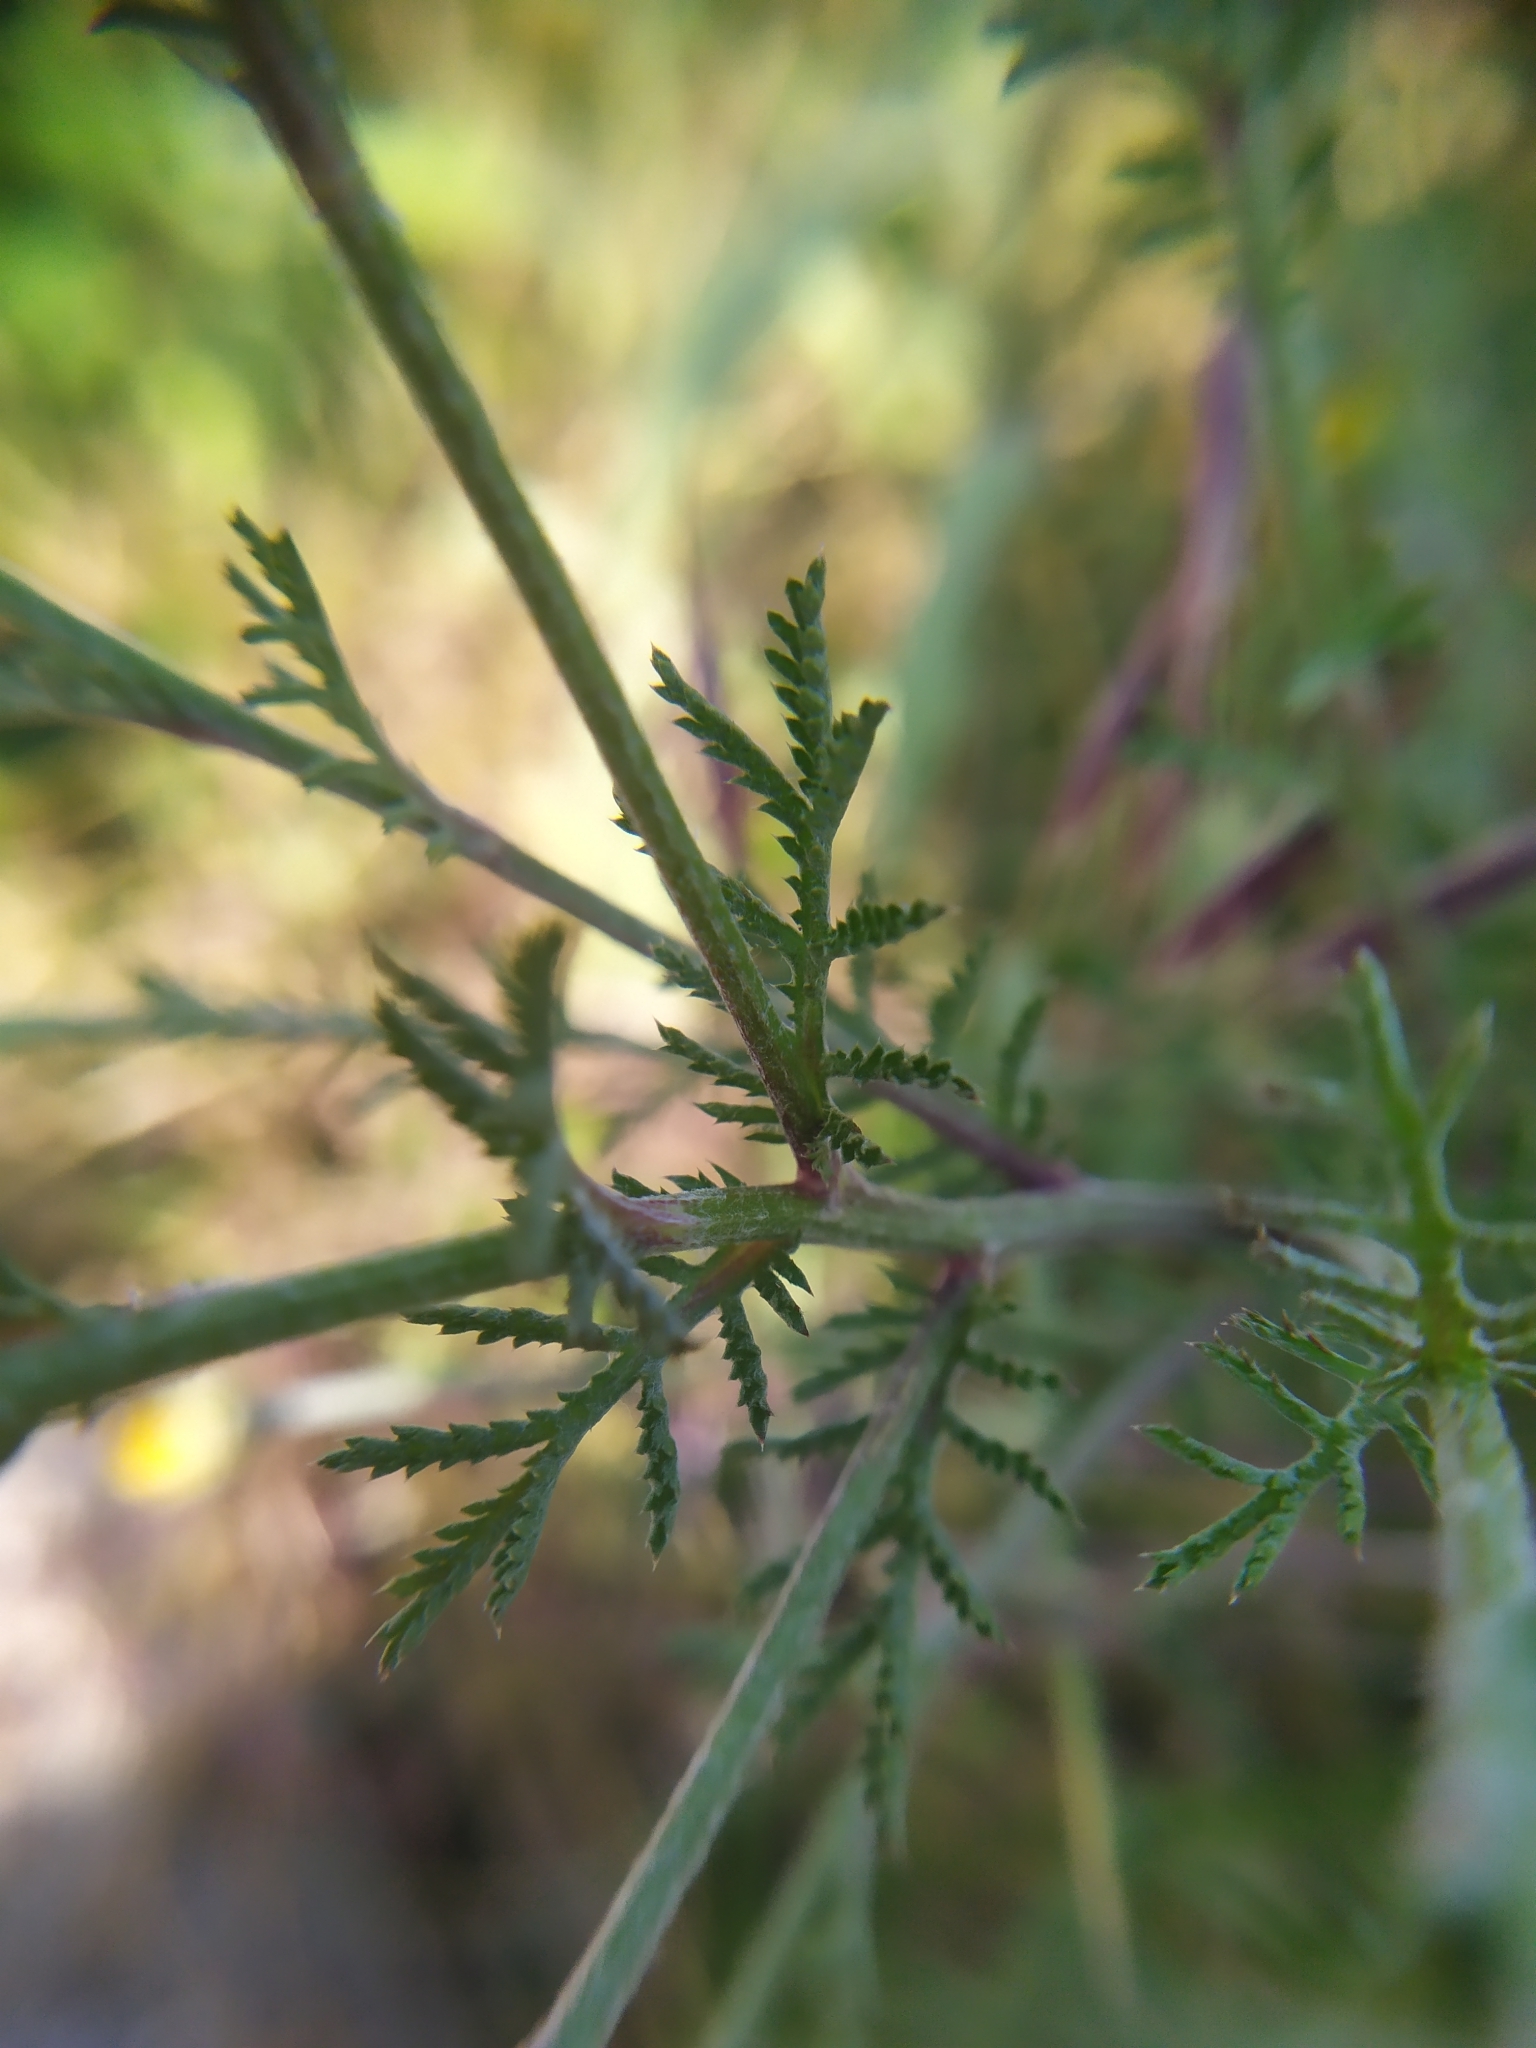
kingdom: Plantae
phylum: Tracheophyta
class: Magnoliopsida
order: Asterales
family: Asteraceae
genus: Cota
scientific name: Cota tinctoria
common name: Golden chamomile
